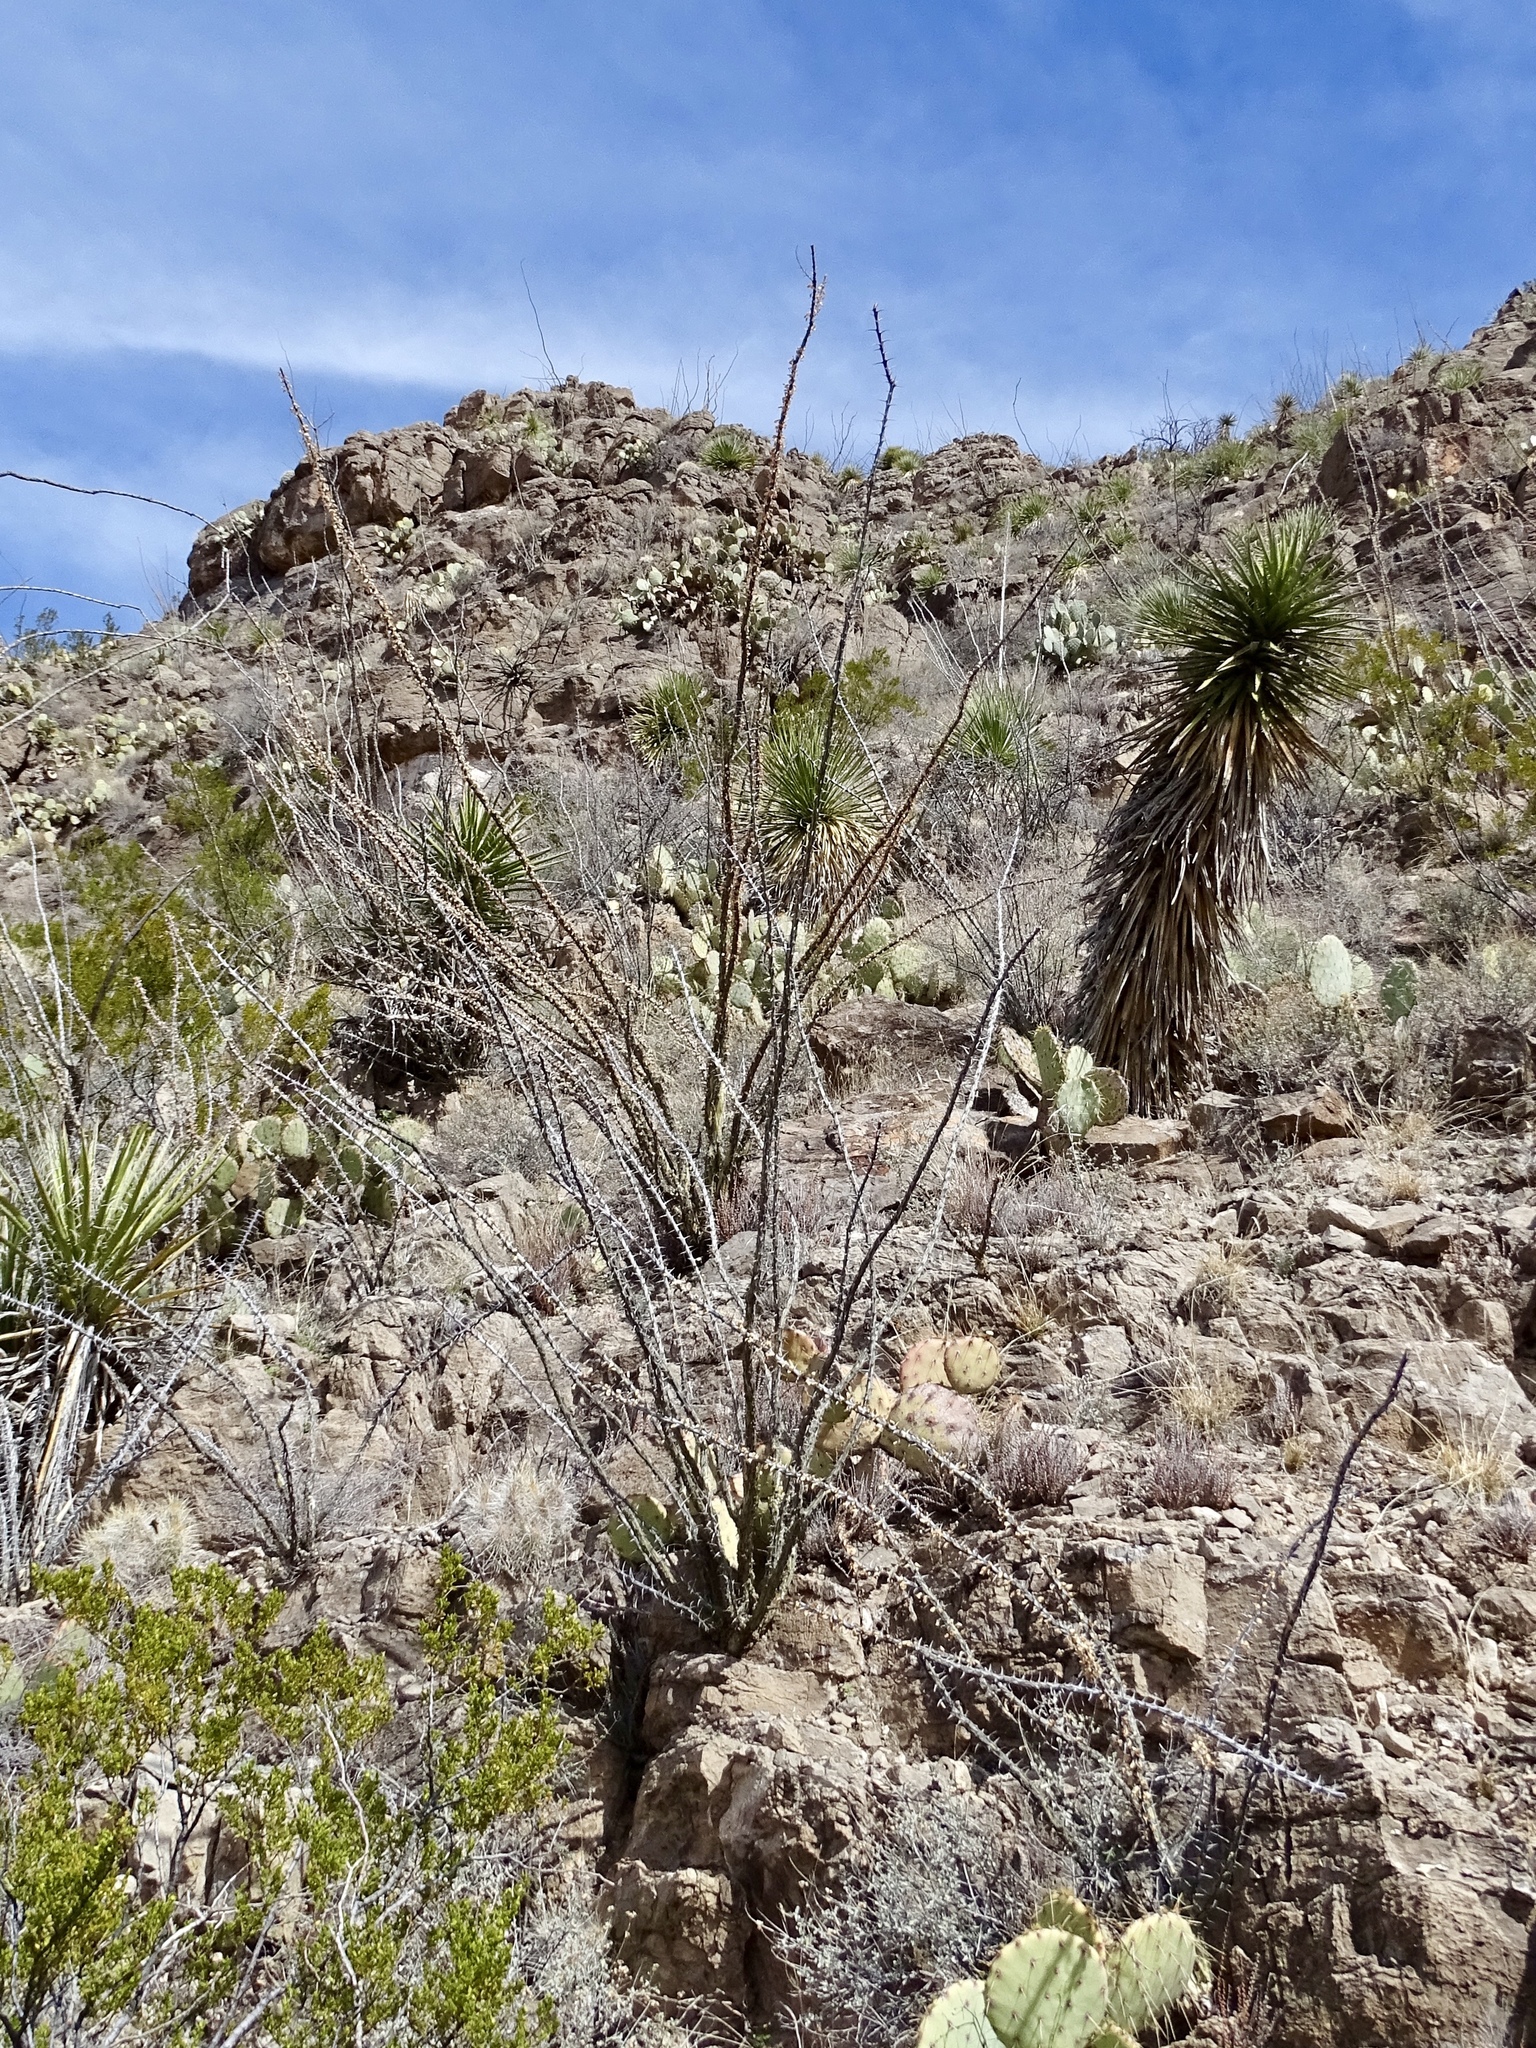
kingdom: Plantae
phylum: Tracheophyta
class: Magnoliopsida
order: Ericales
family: Fouquieriaceae
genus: Fouquieria
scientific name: Fouquieria splendens
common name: Vine-cactus
